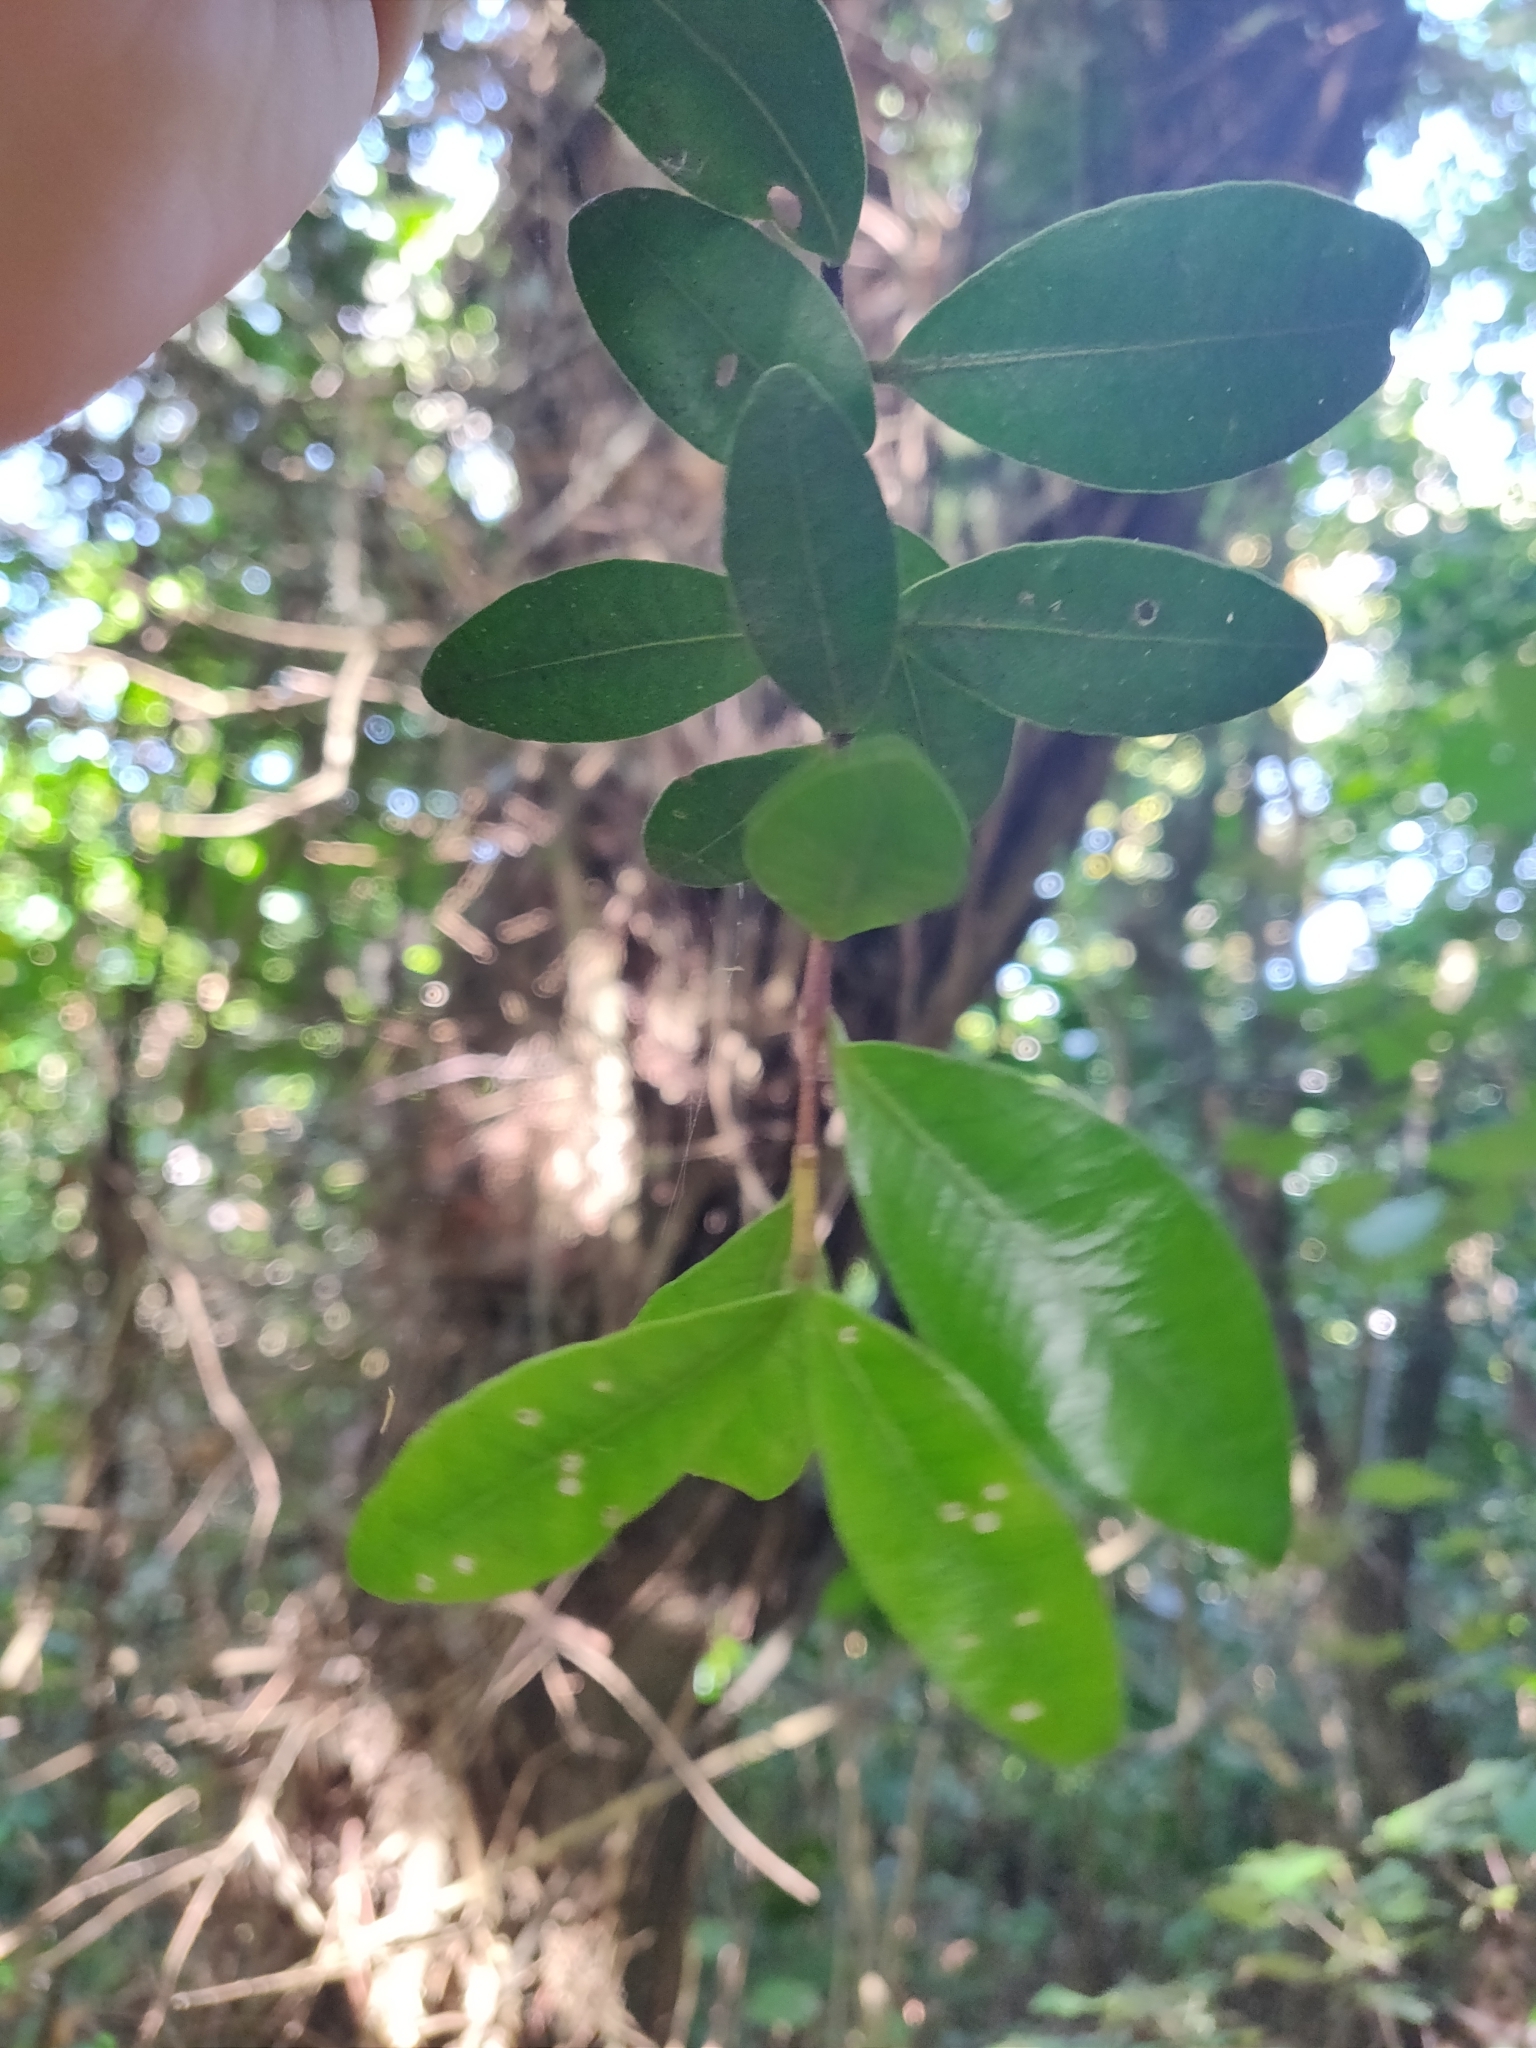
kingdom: Plantae
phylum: Tracheophyta
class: Magnoliopsida
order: Myrtales
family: Myrtaceae
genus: Metrosideros
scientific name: Metrosideros fulgens
